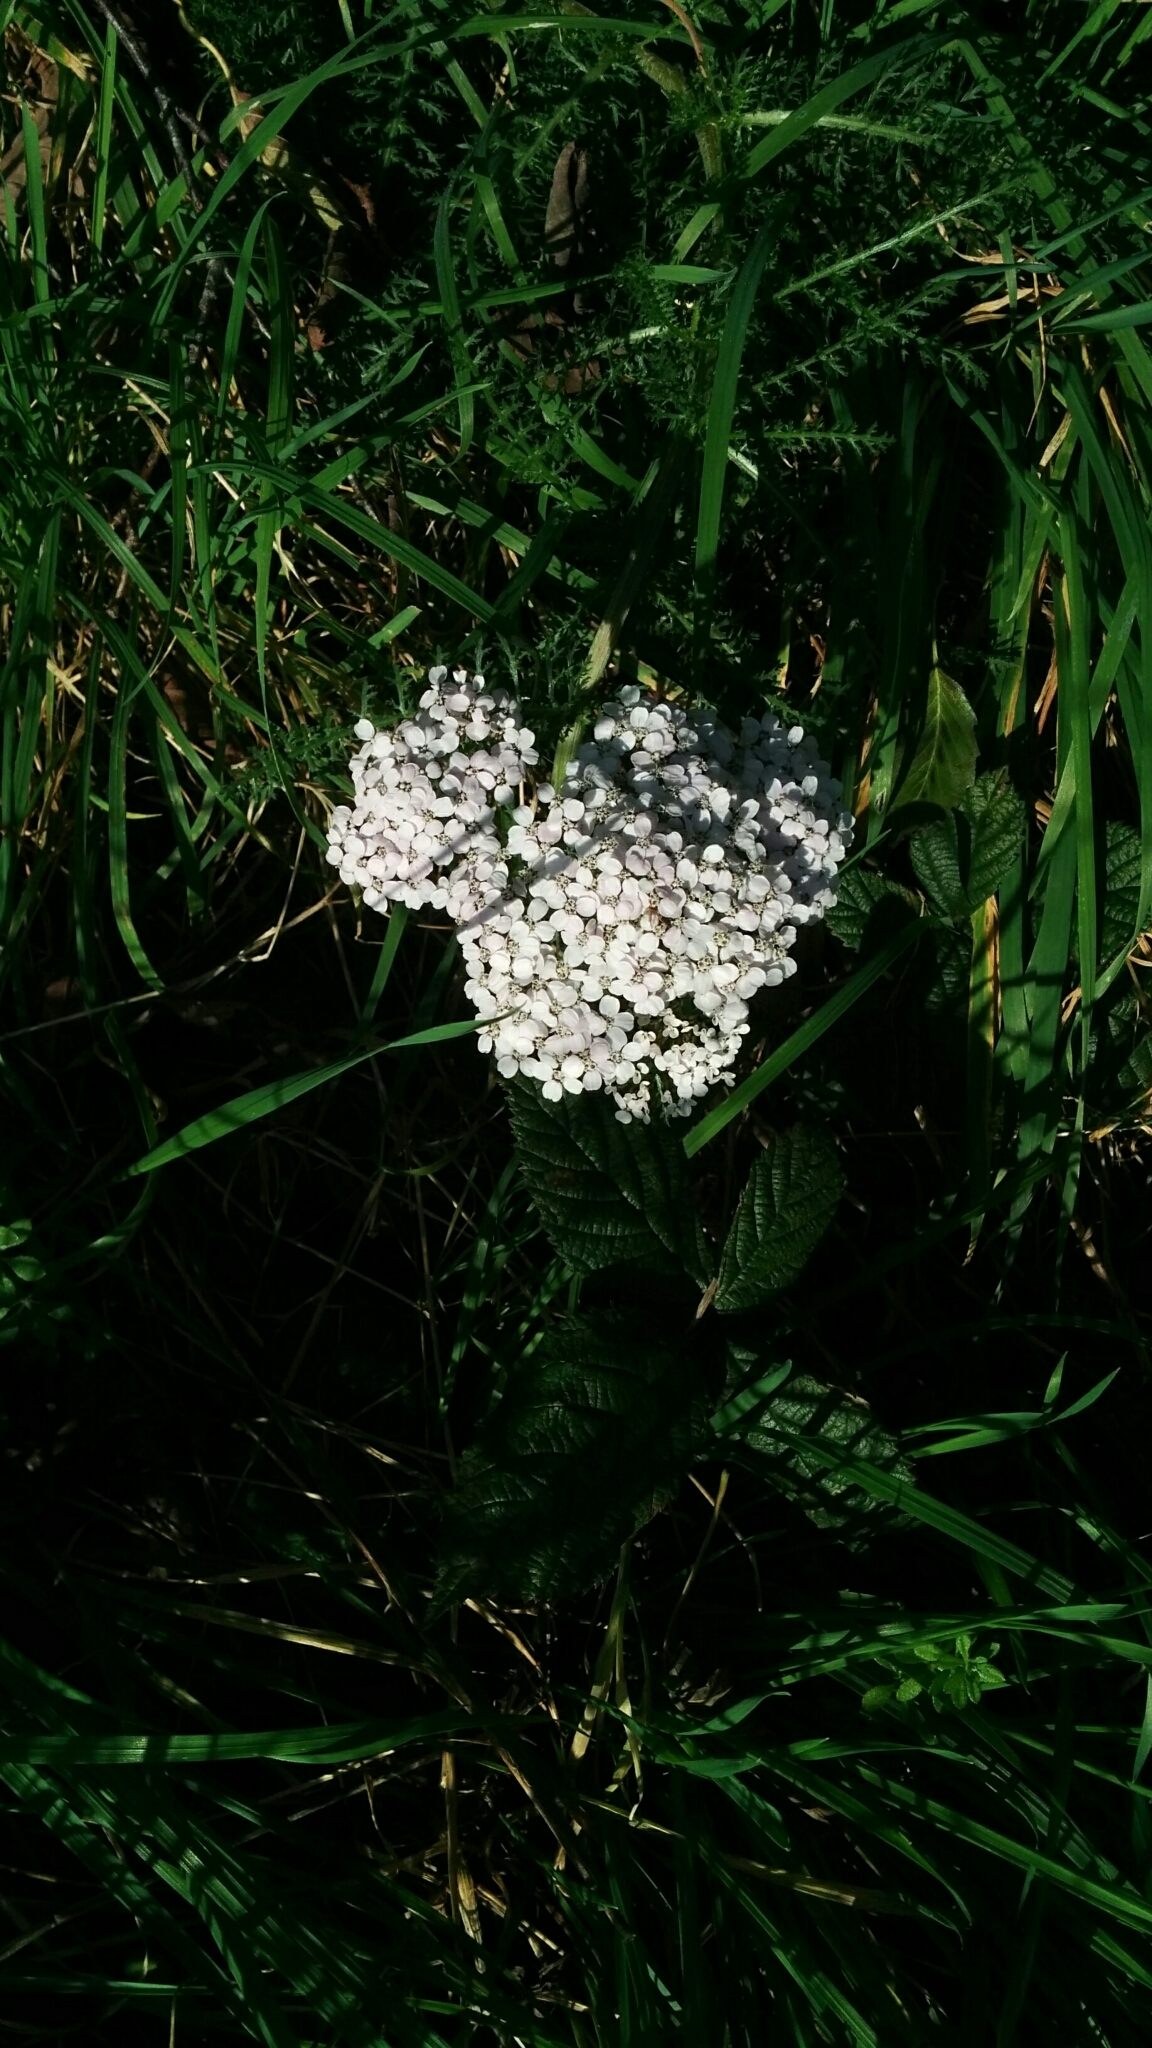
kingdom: Plantae
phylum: Tracheophyta
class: Magnoliopsida
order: Asterales
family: Asteraceae
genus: Achillea
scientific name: Achillea millefolium
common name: Yarrow
